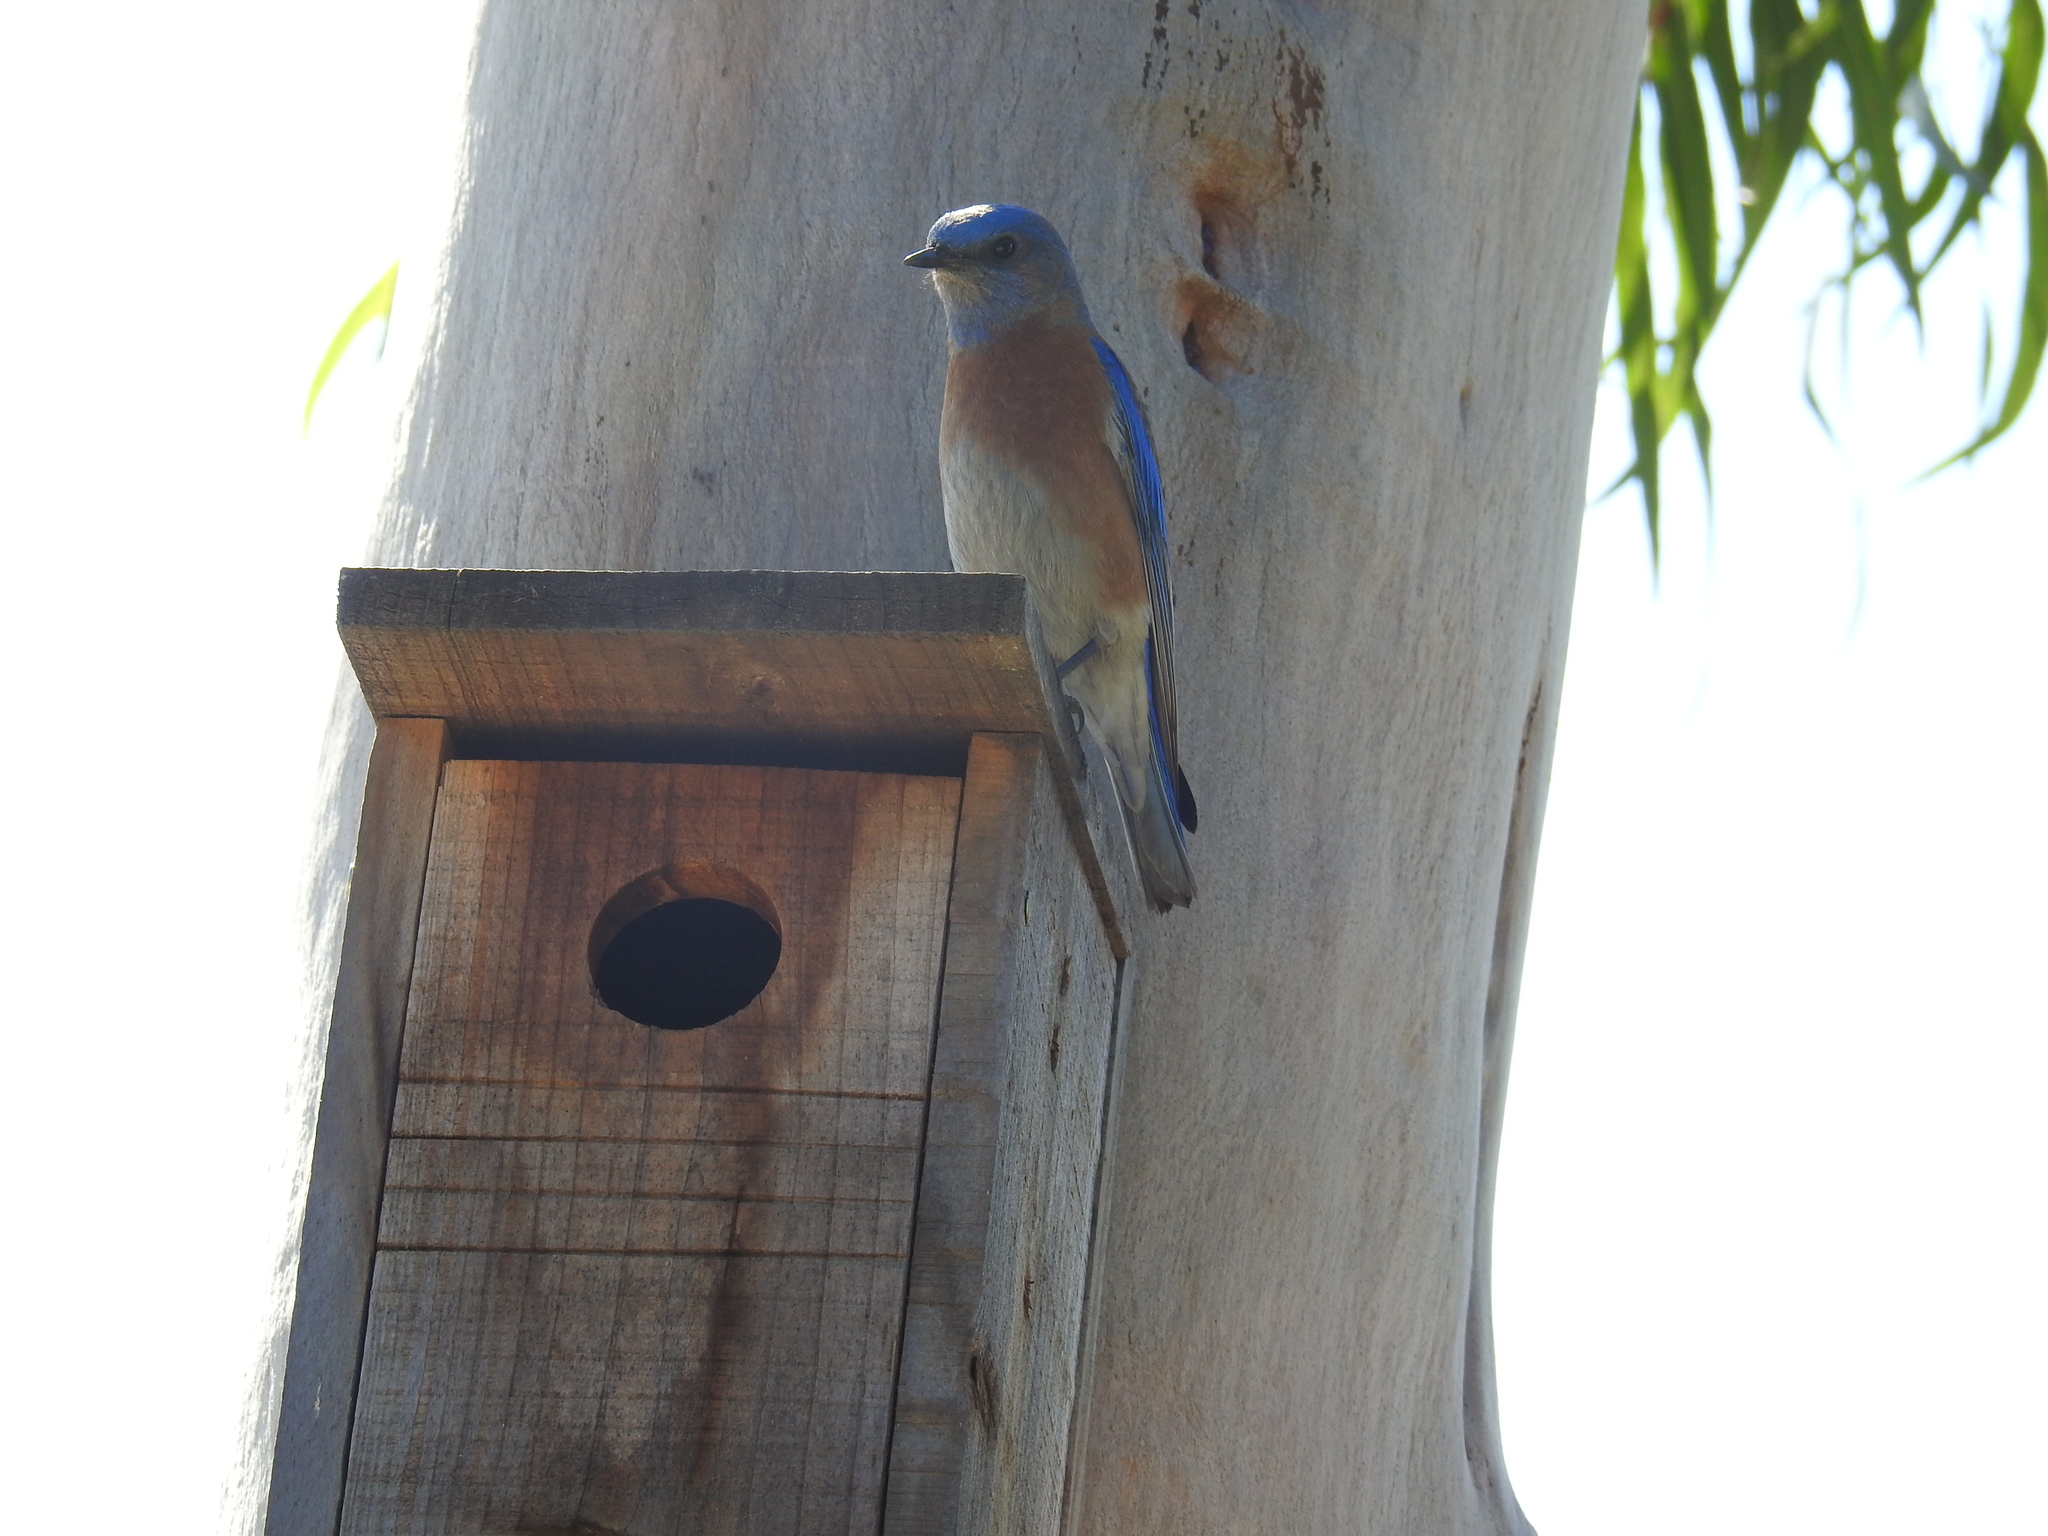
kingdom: Animalia
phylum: Chordata
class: Aves
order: Passeriformes
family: Turdidae
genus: Sialia
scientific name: Sialia mexicana
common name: Western bluebird
